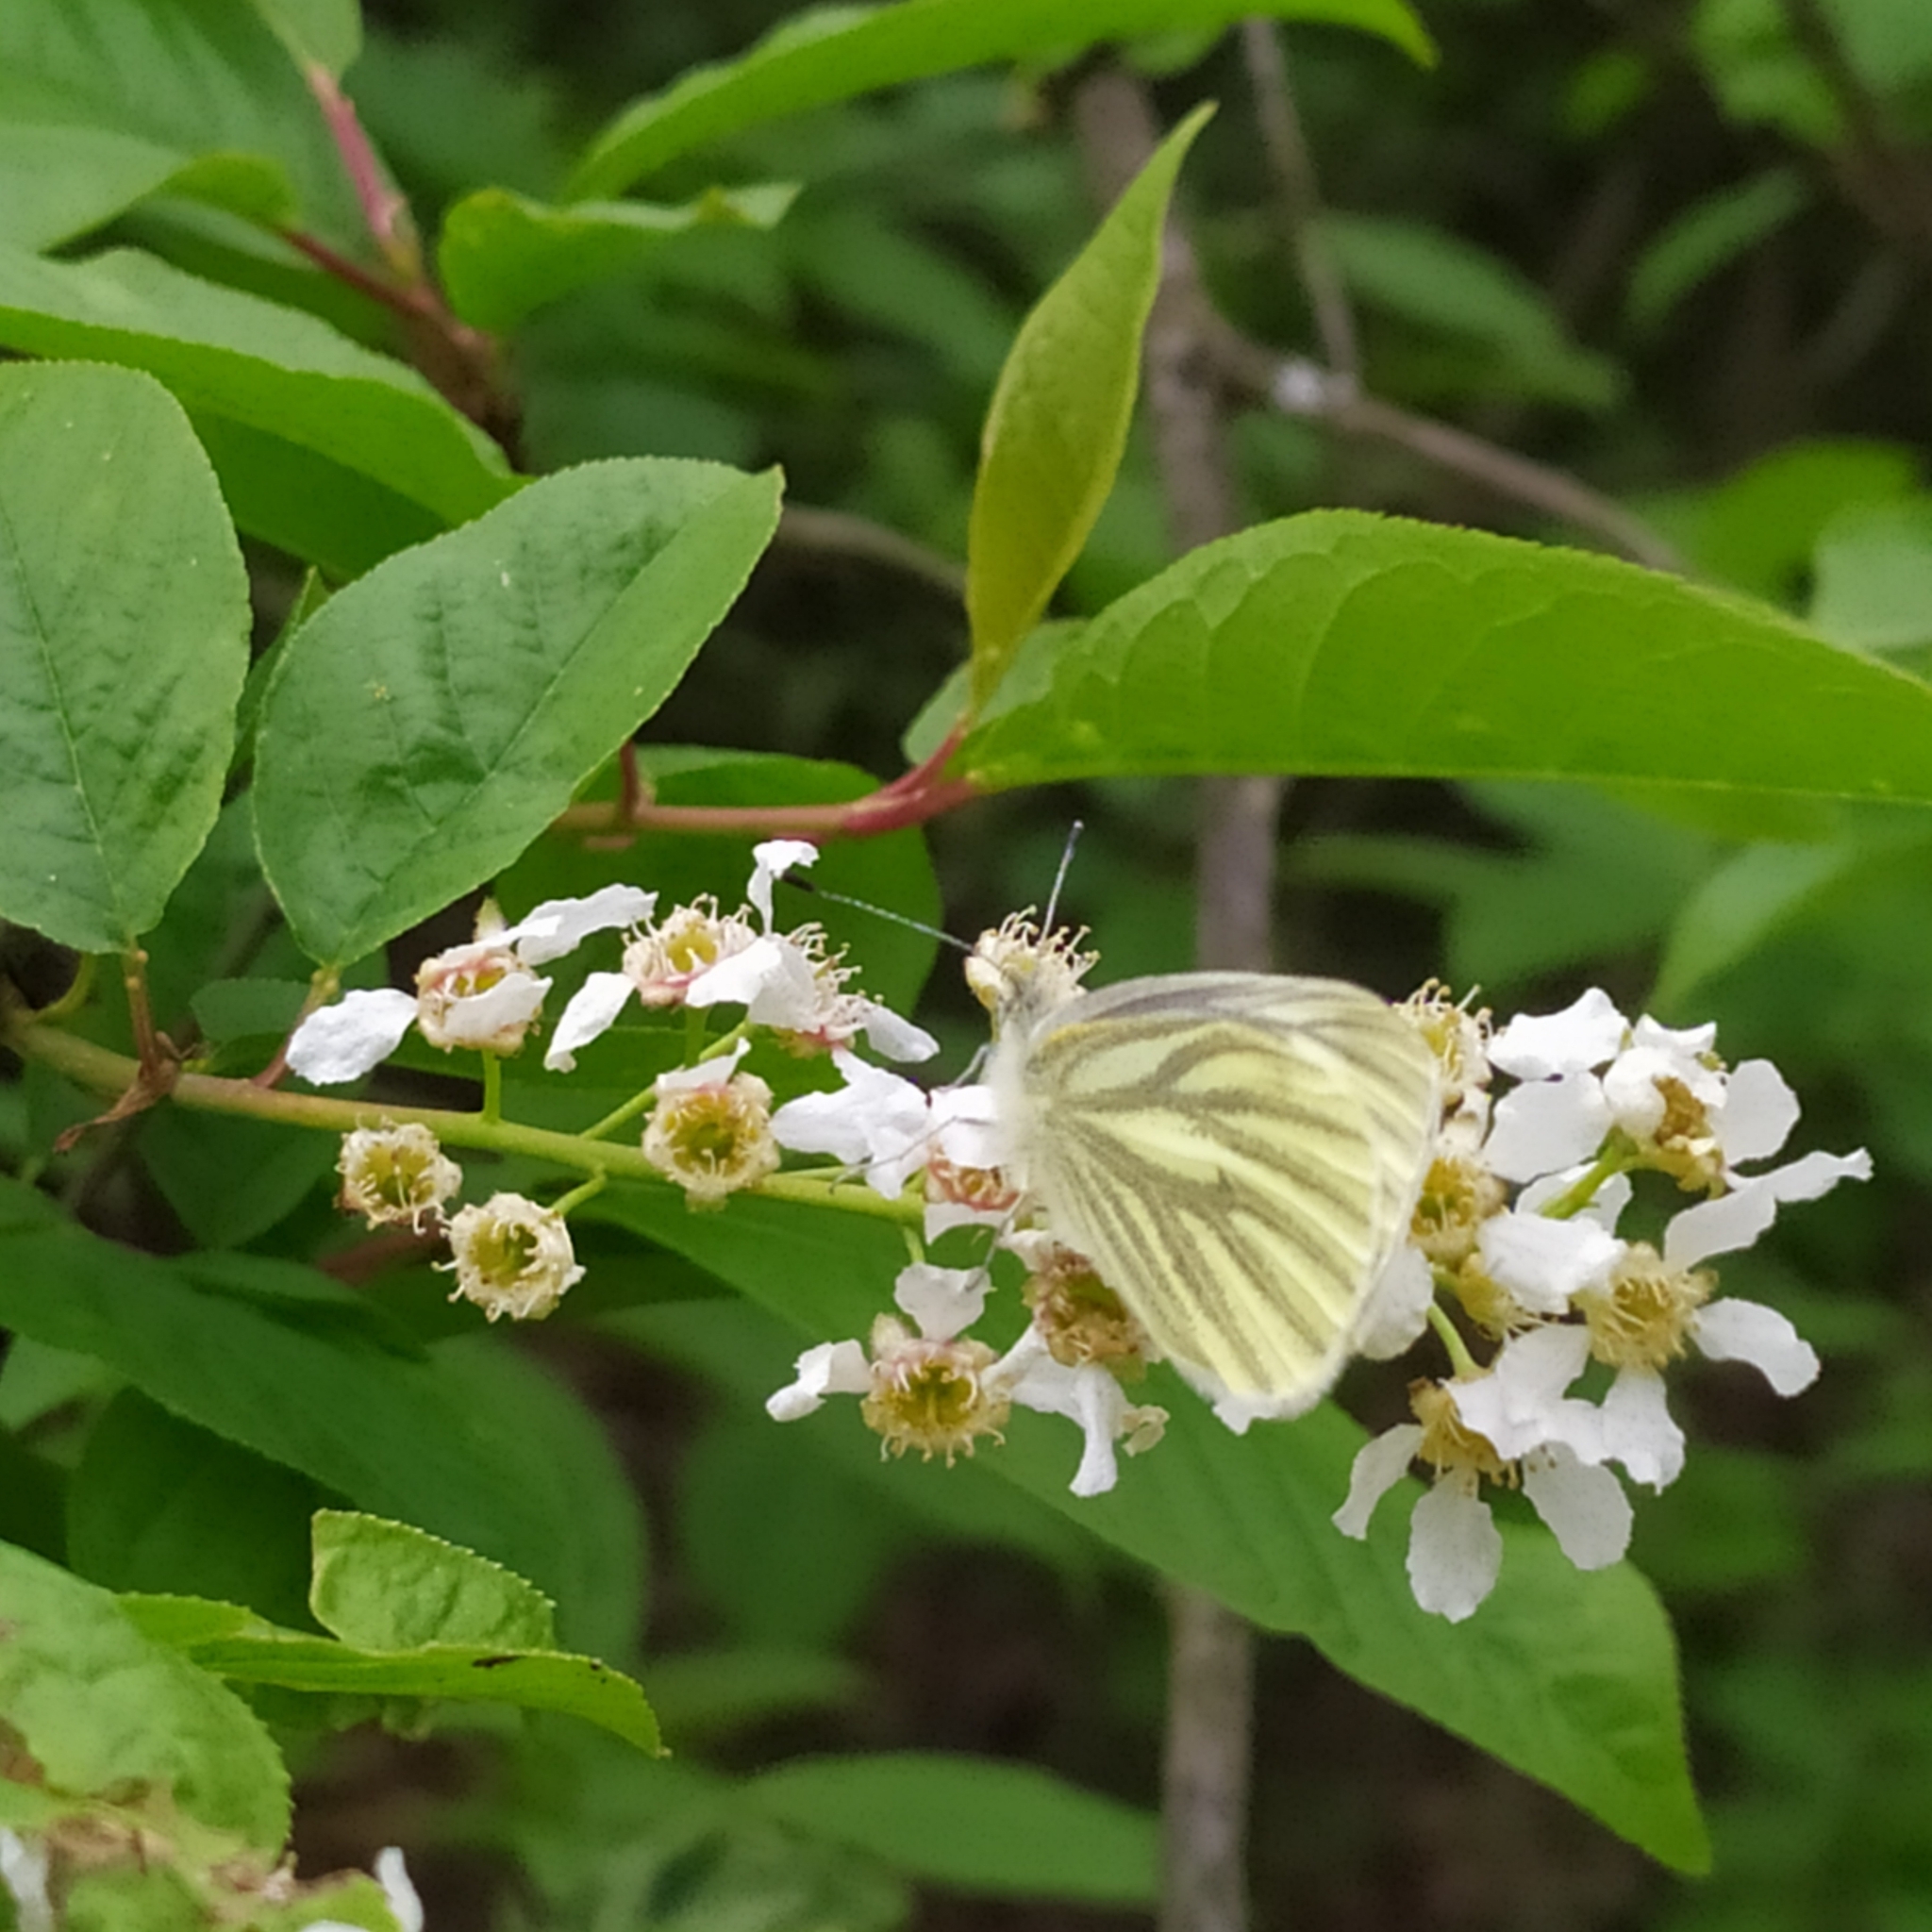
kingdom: Animalia
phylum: Arthropoda
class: Insecta
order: Lepidoptera
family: Pieridae
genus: Pieris
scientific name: Pieris napi
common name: Green-veined white
